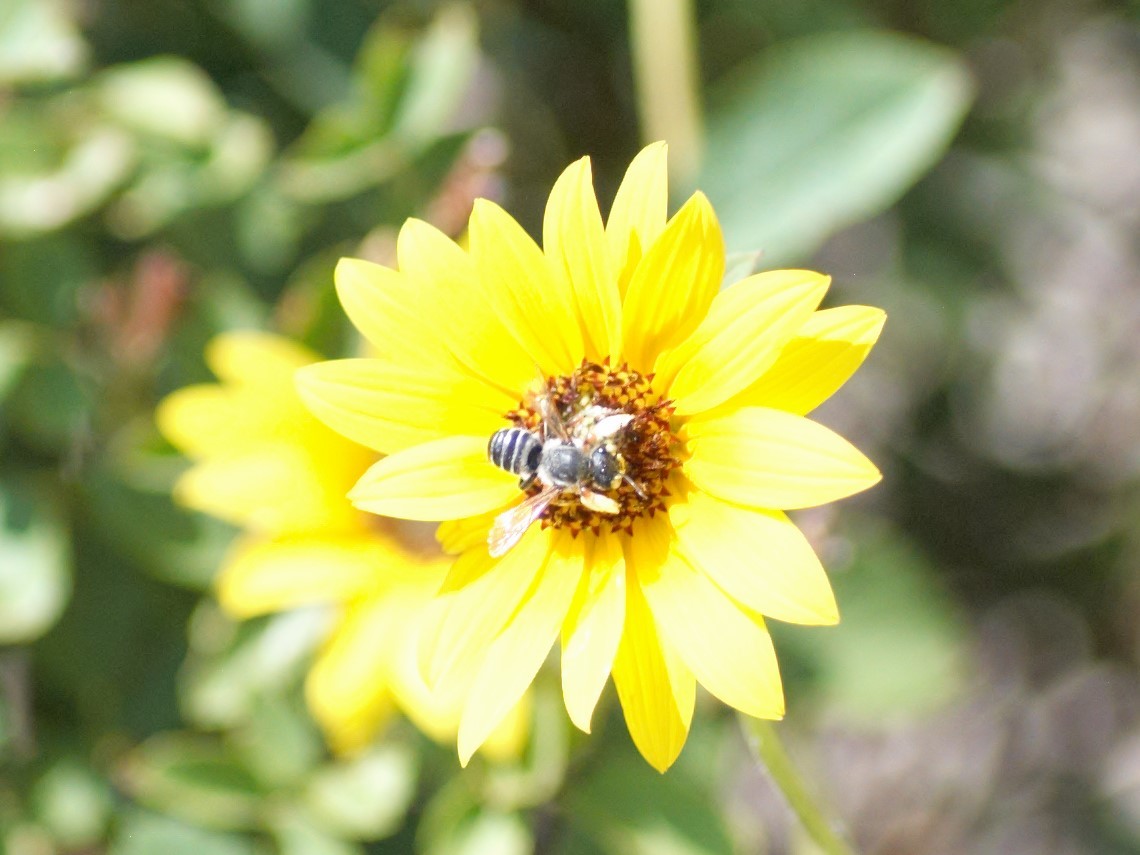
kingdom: Animalia
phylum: Arthropoda
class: Insecta
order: Hymenoptera
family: Megachilidae
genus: Megachile
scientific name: Megachile policaris
